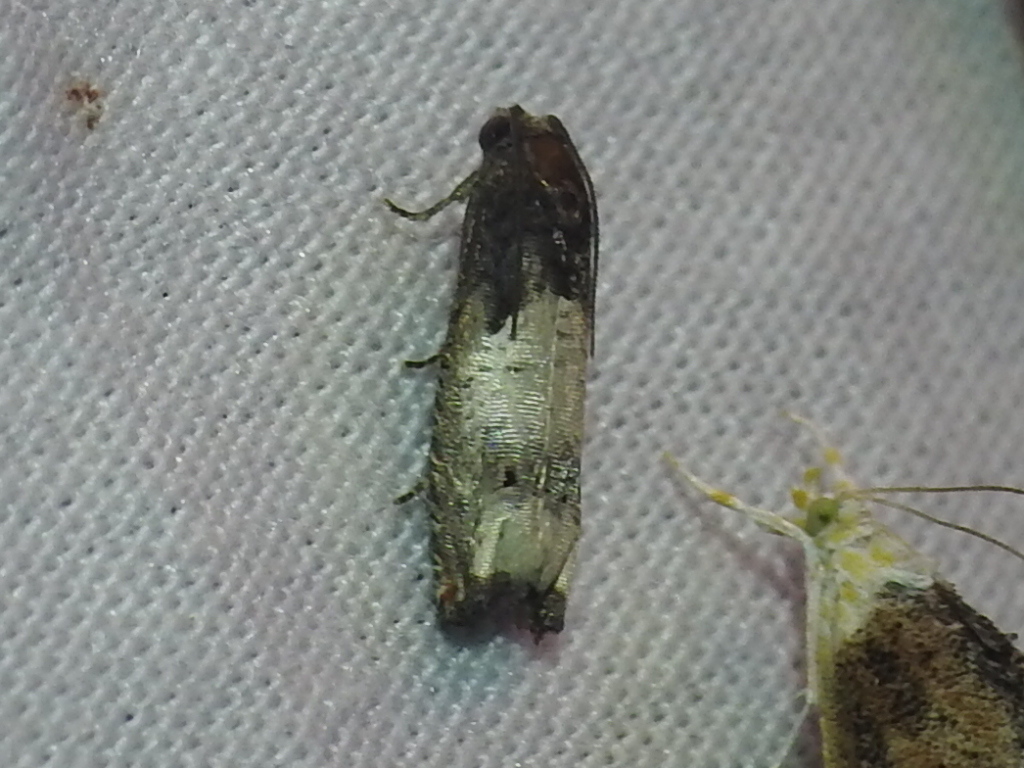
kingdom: Animalia
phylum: Arthropoda
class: Insecta
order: Lepidoptera
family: Tortricidae
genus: Epiblema
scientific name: Epiblema scudderiana
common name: Goldenrod gall moth
